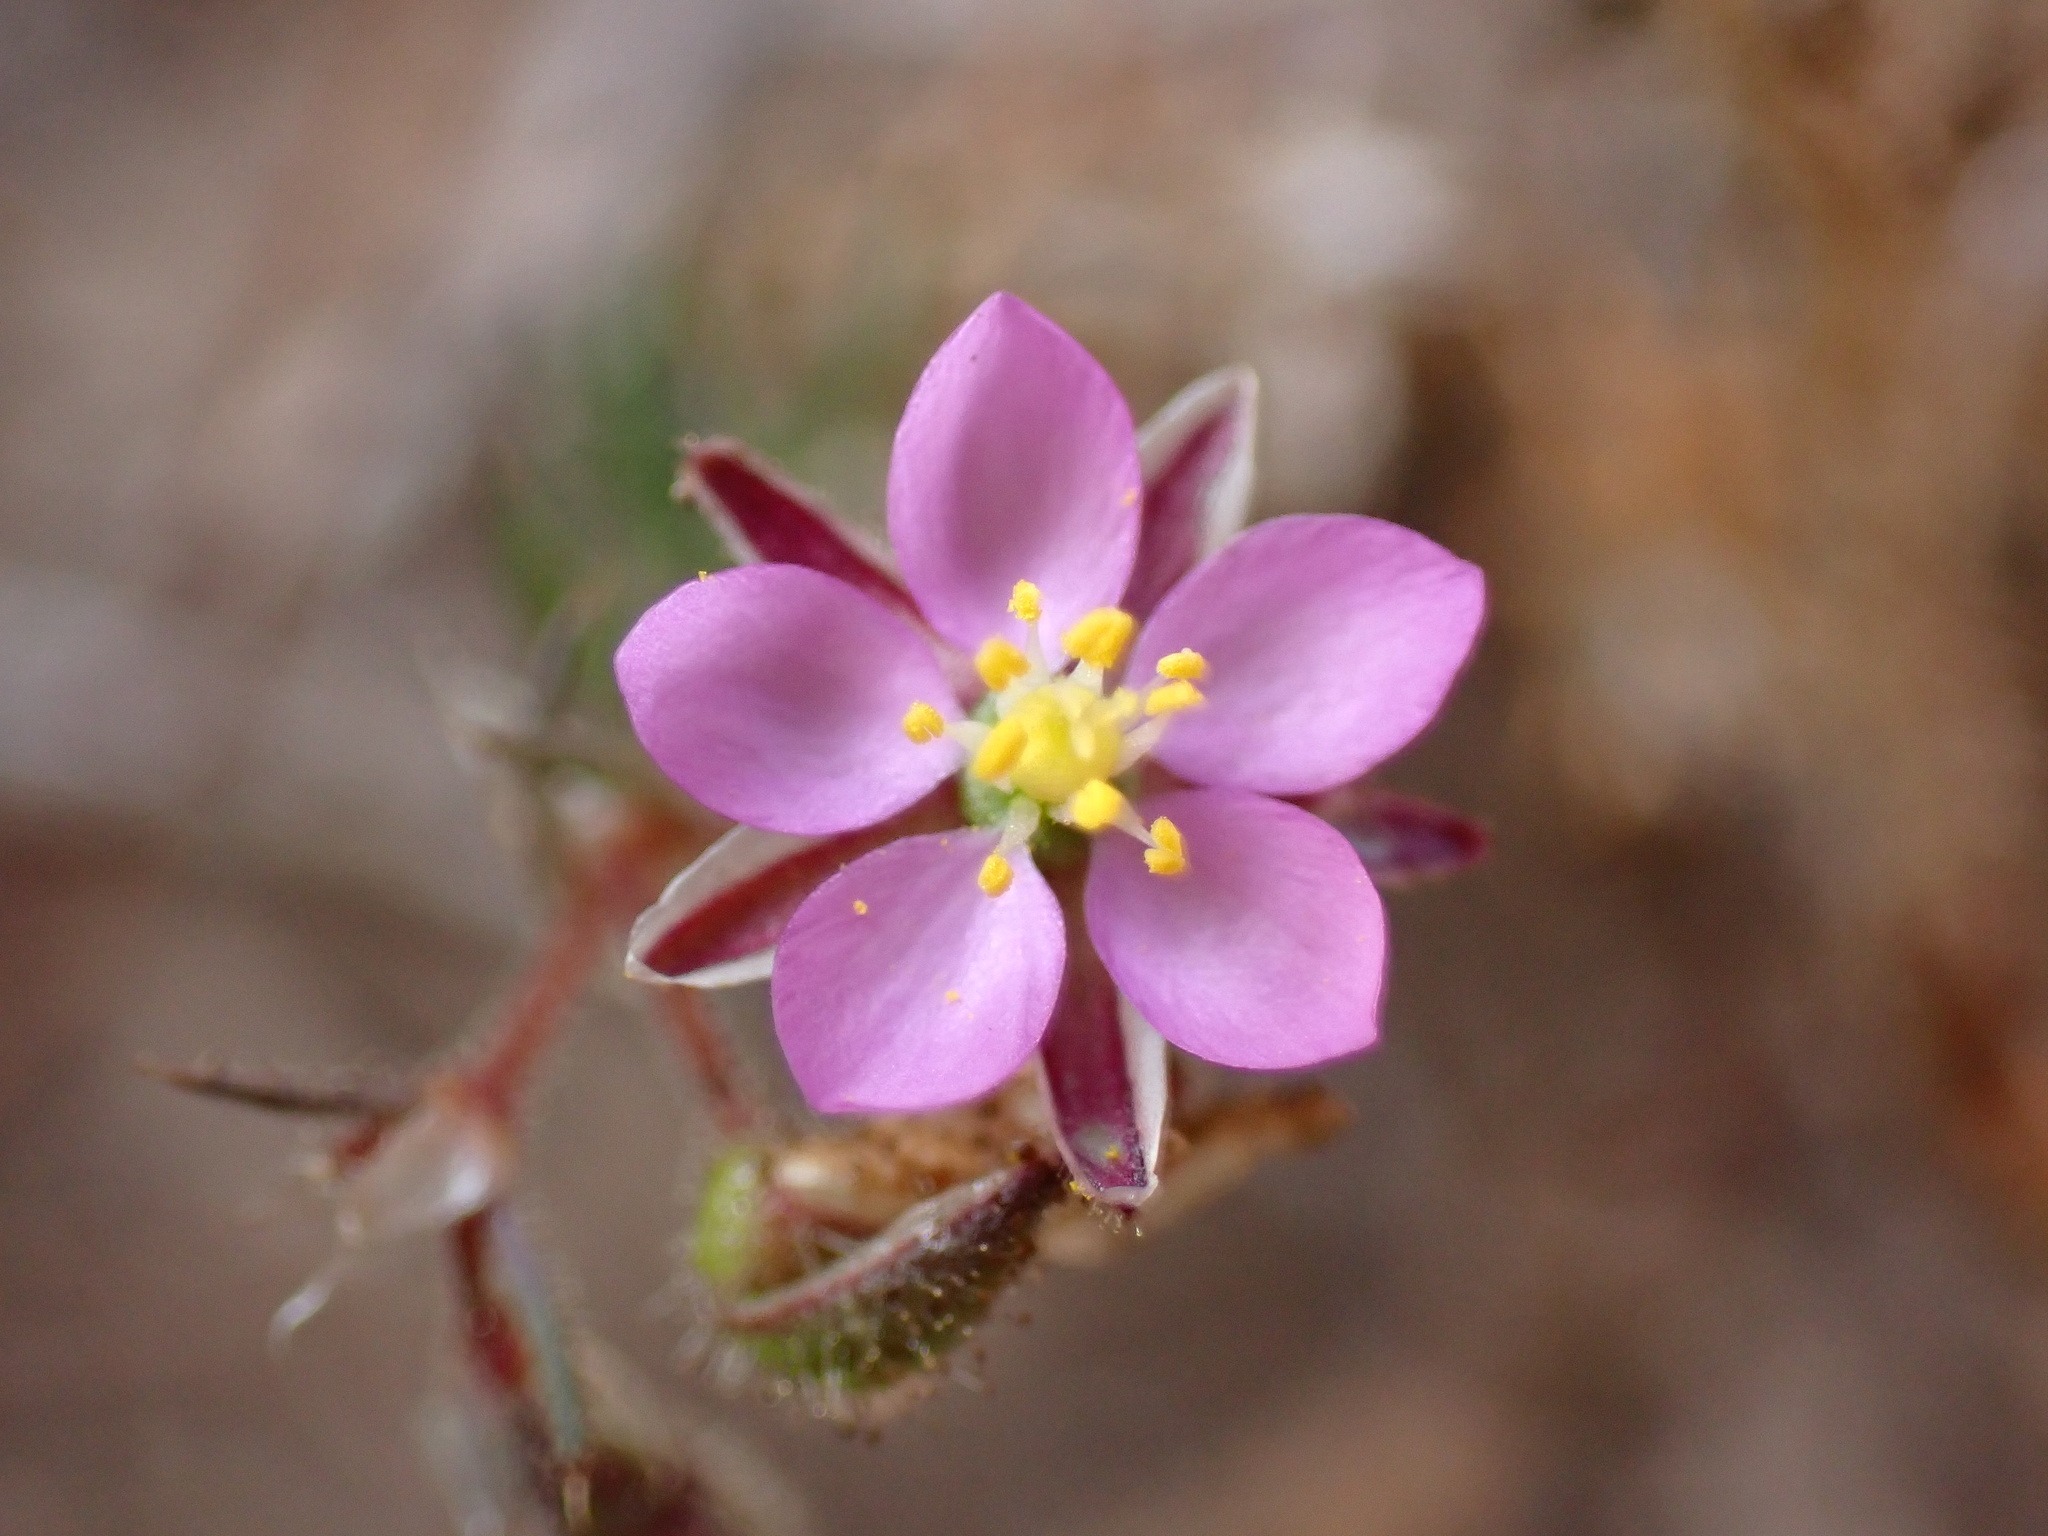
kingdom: Plantae
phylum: Tracheophyta
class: Magnoliopsida
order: Caryophyllales
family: Caryophyllaceae
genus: Spergularia
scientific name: Spergularia rubra
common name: Red sand-spurrey
